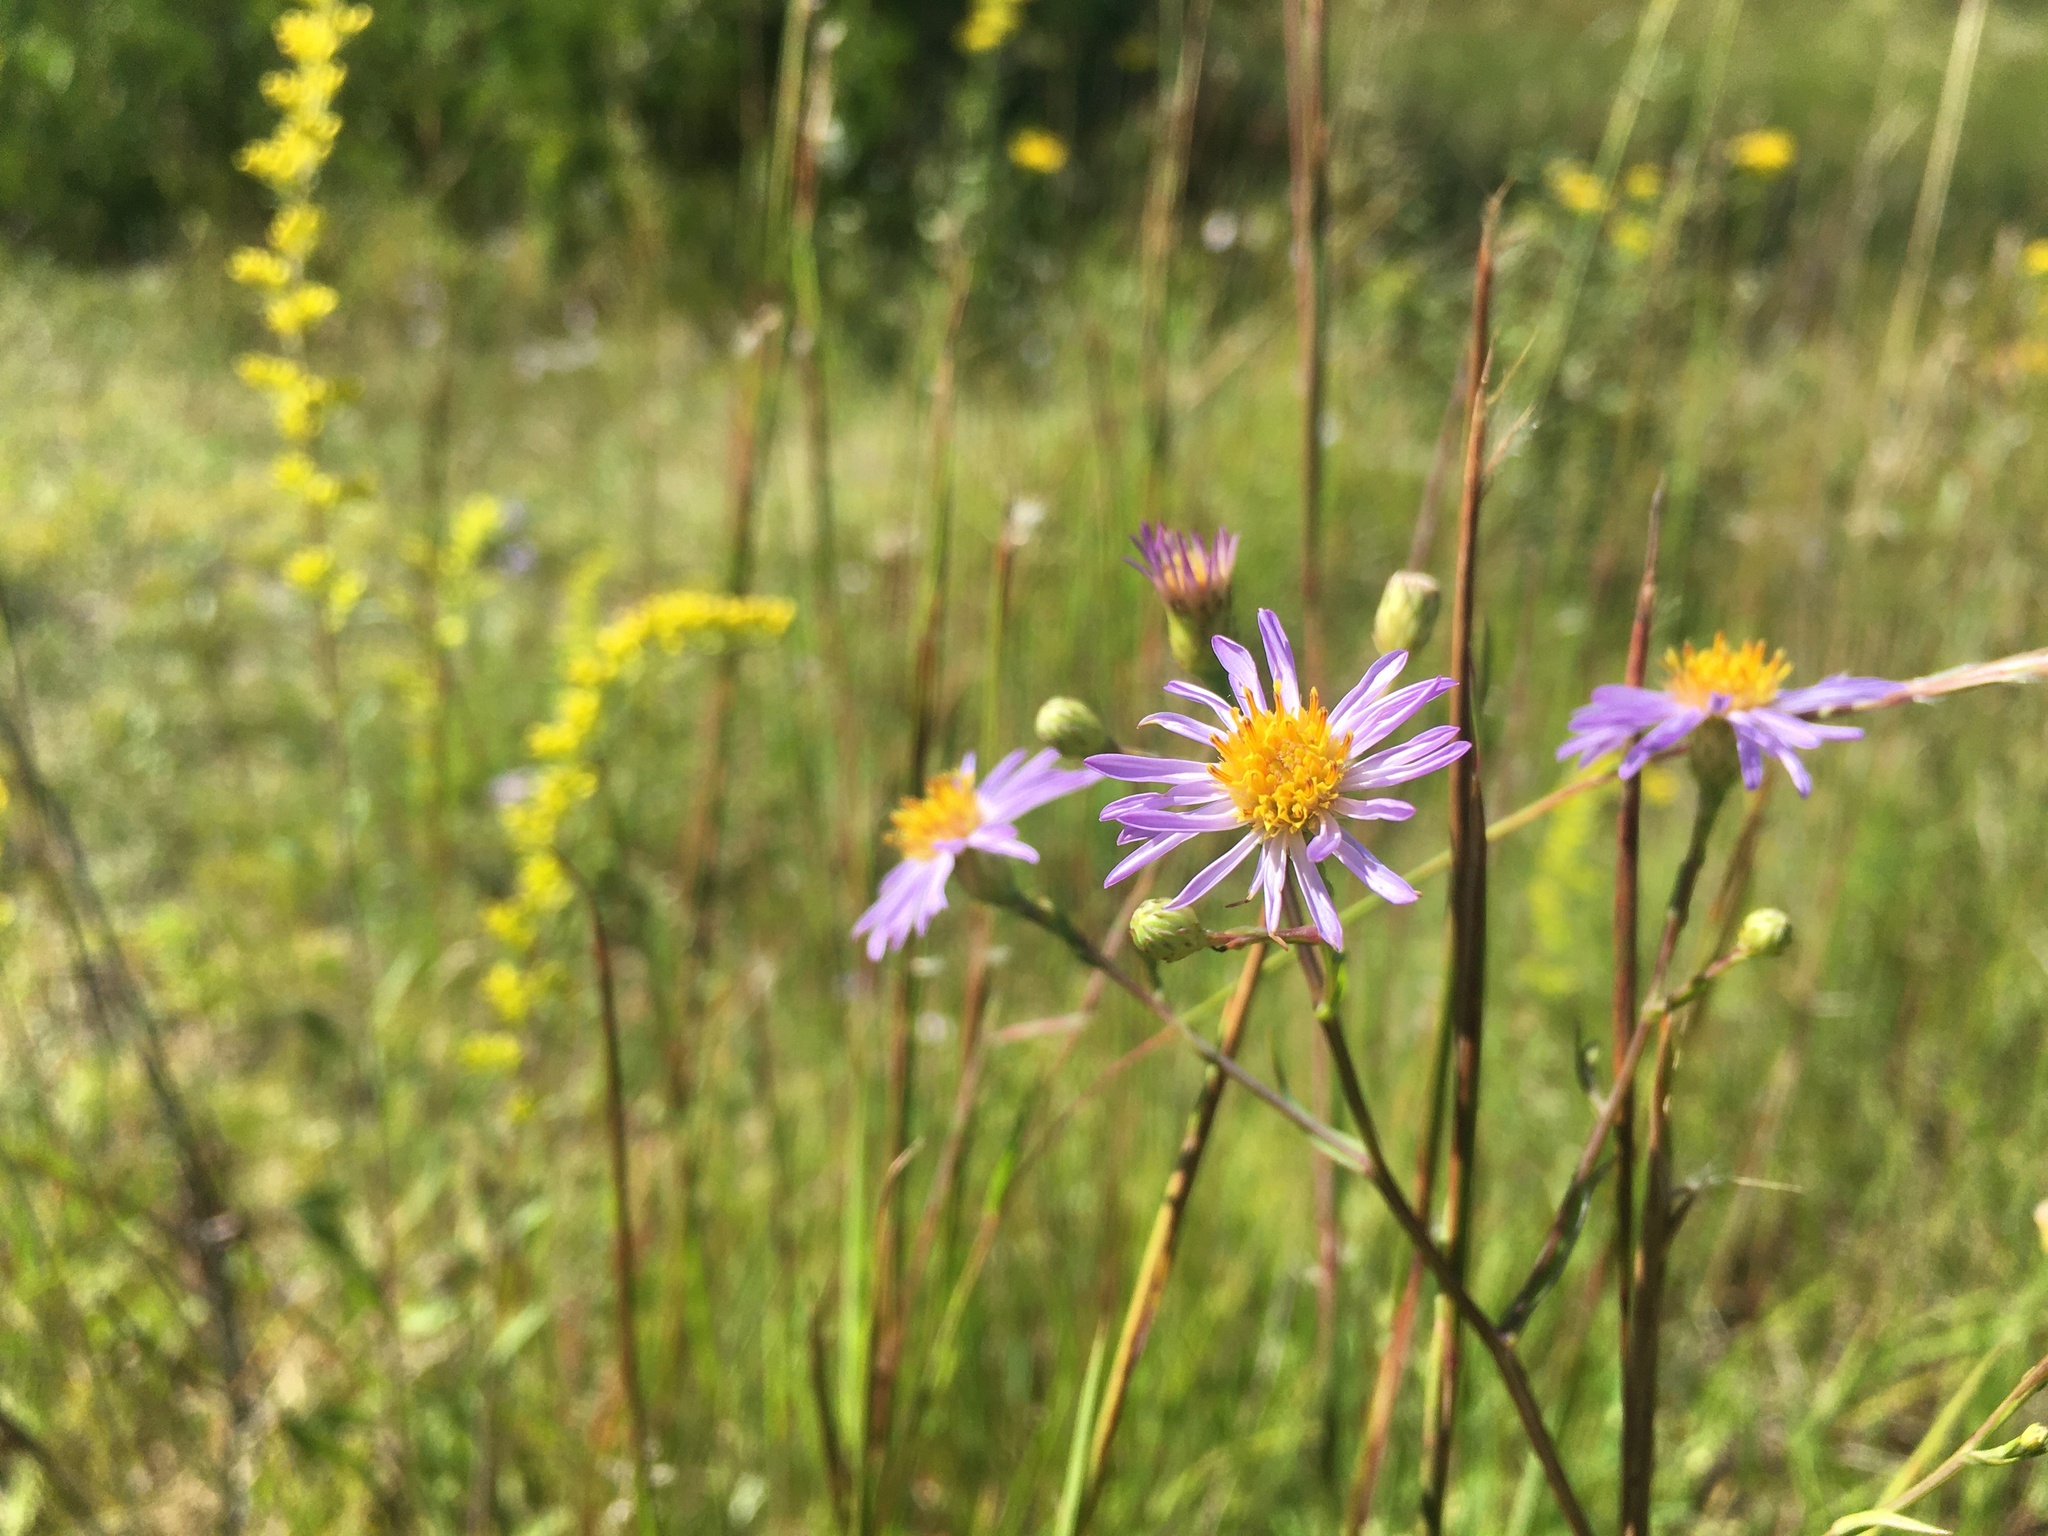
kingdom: Plantae
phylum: Tracheophyta
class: Magnoliopsida
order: Asterales
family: Asteraceae
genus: Symphyotrichum
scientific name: Symphyotrichum laeve
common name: Glaucous aster
